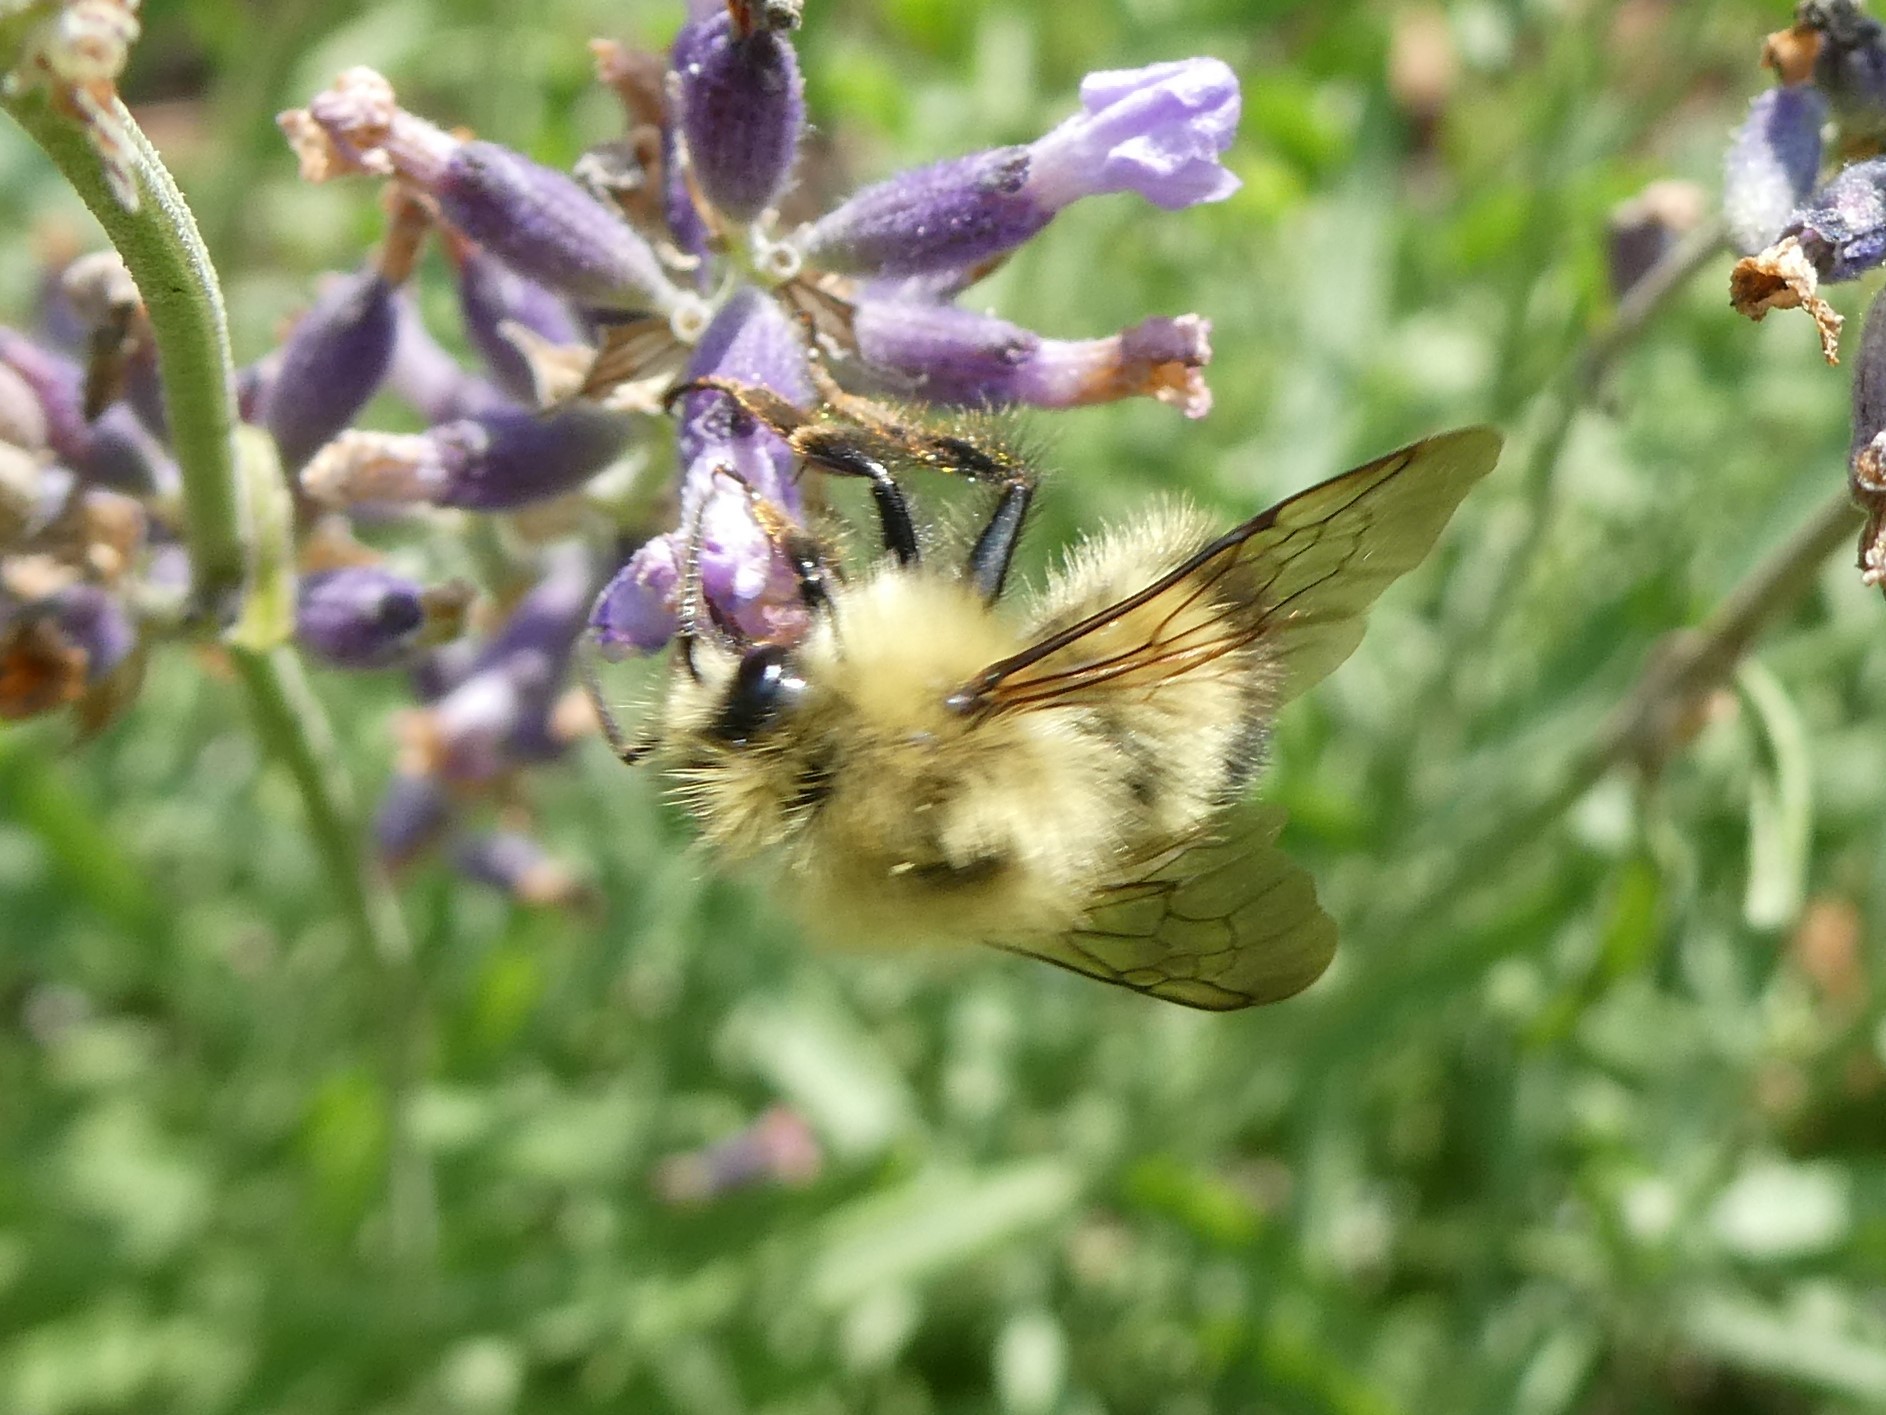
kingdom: Animalia
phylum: Arthropoda
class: Insecta
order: Hymenoptera
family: Apidae
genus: Bombus
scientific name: Bombus perplexus
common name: Confusing bumble bee
